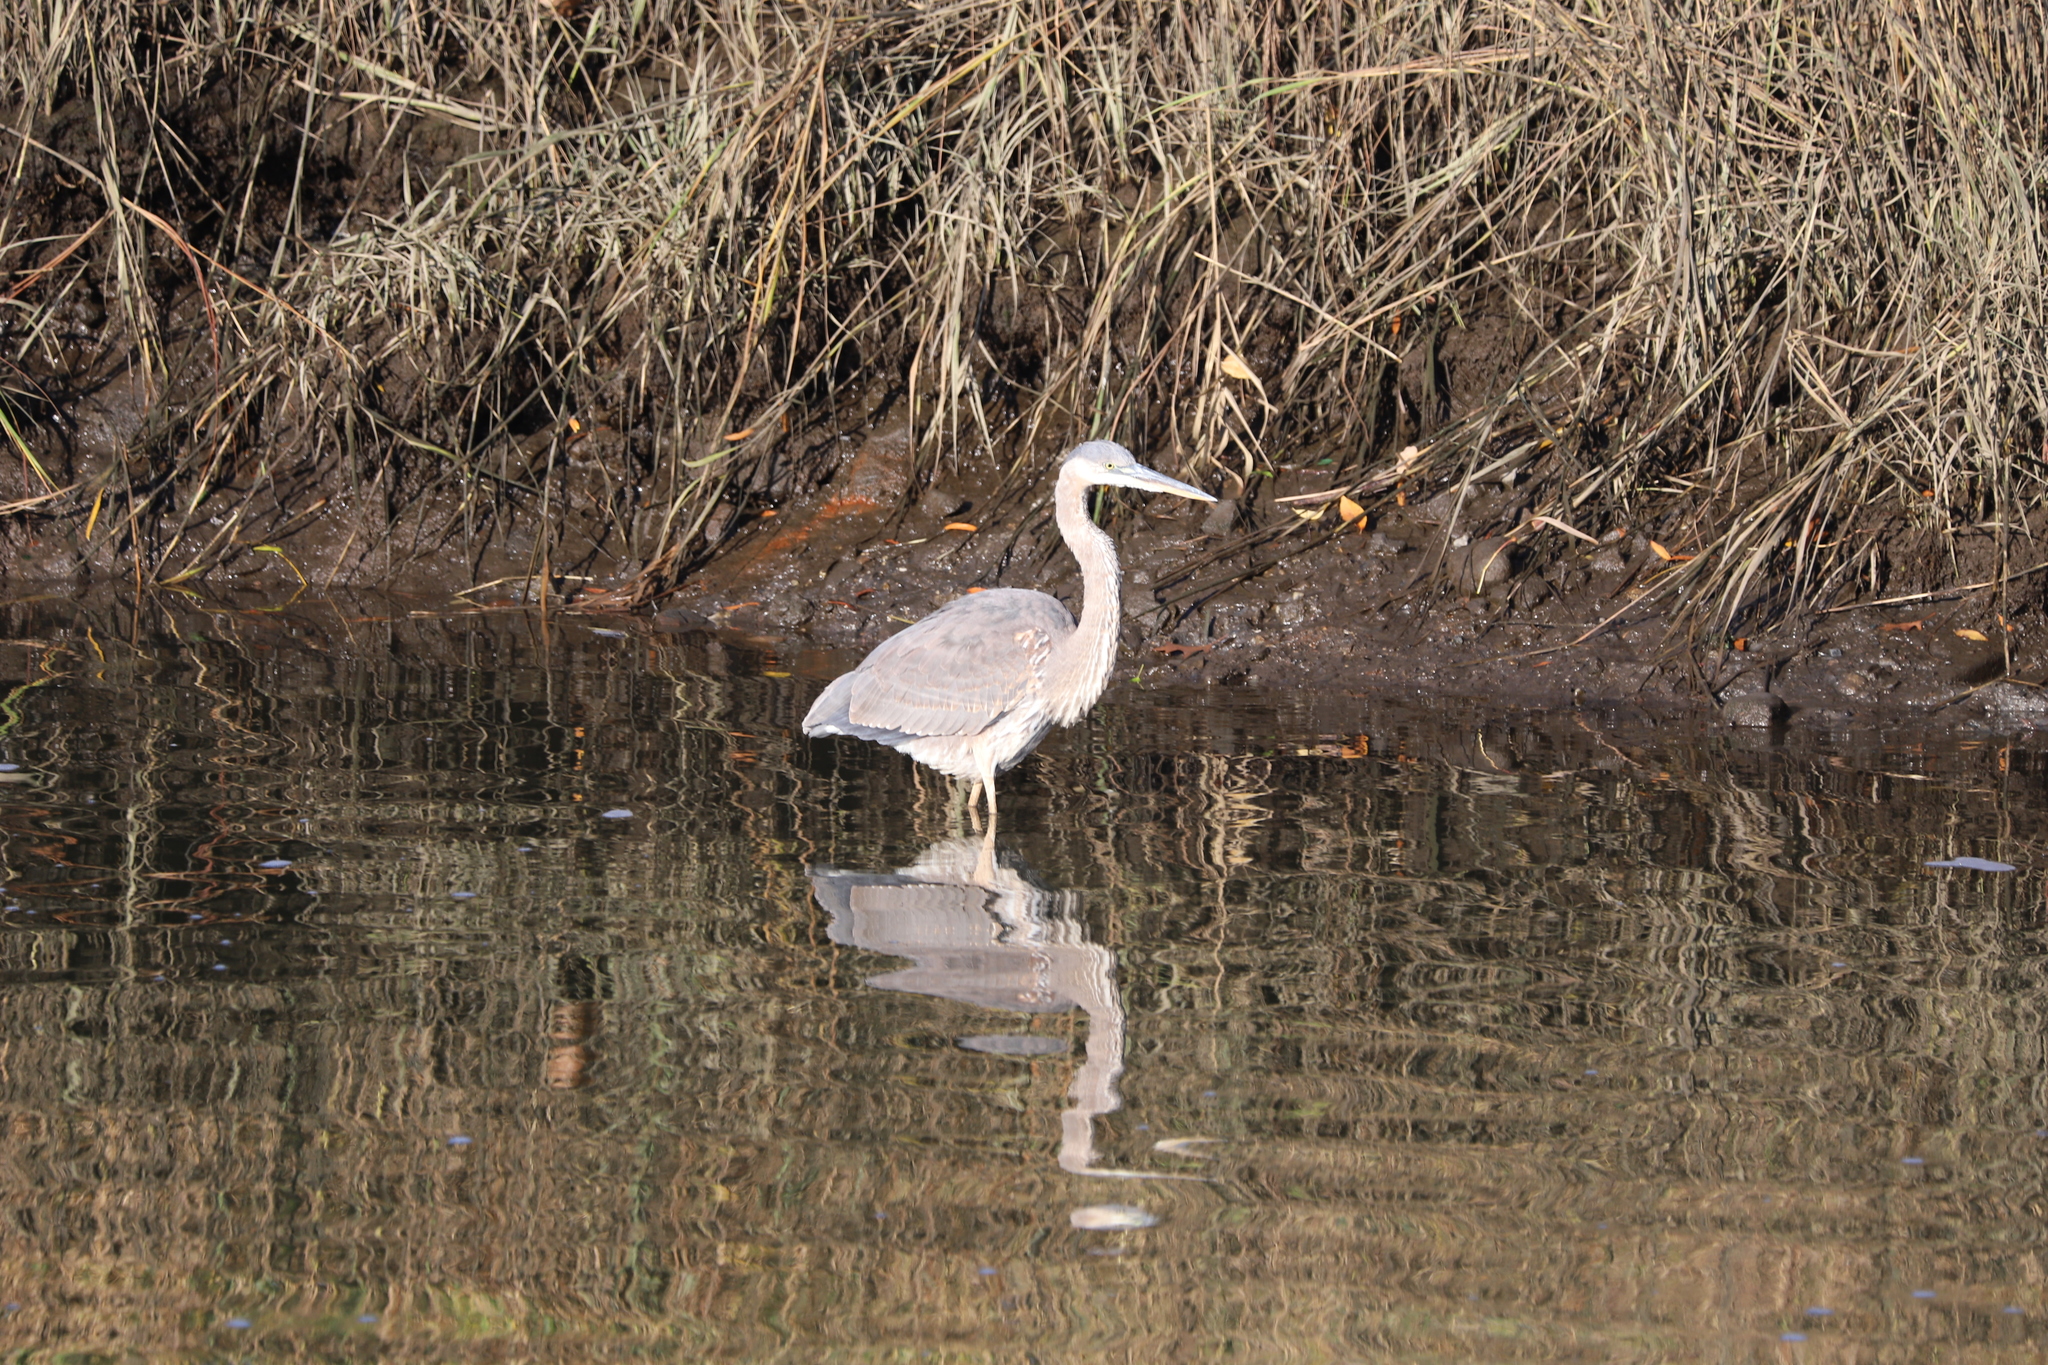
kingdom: Animalia
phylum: Chordata
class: Aves
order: Pelecaniformes
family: Ardeidae
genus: Ardea
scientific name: Ardea herodias
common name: Great blue heron
